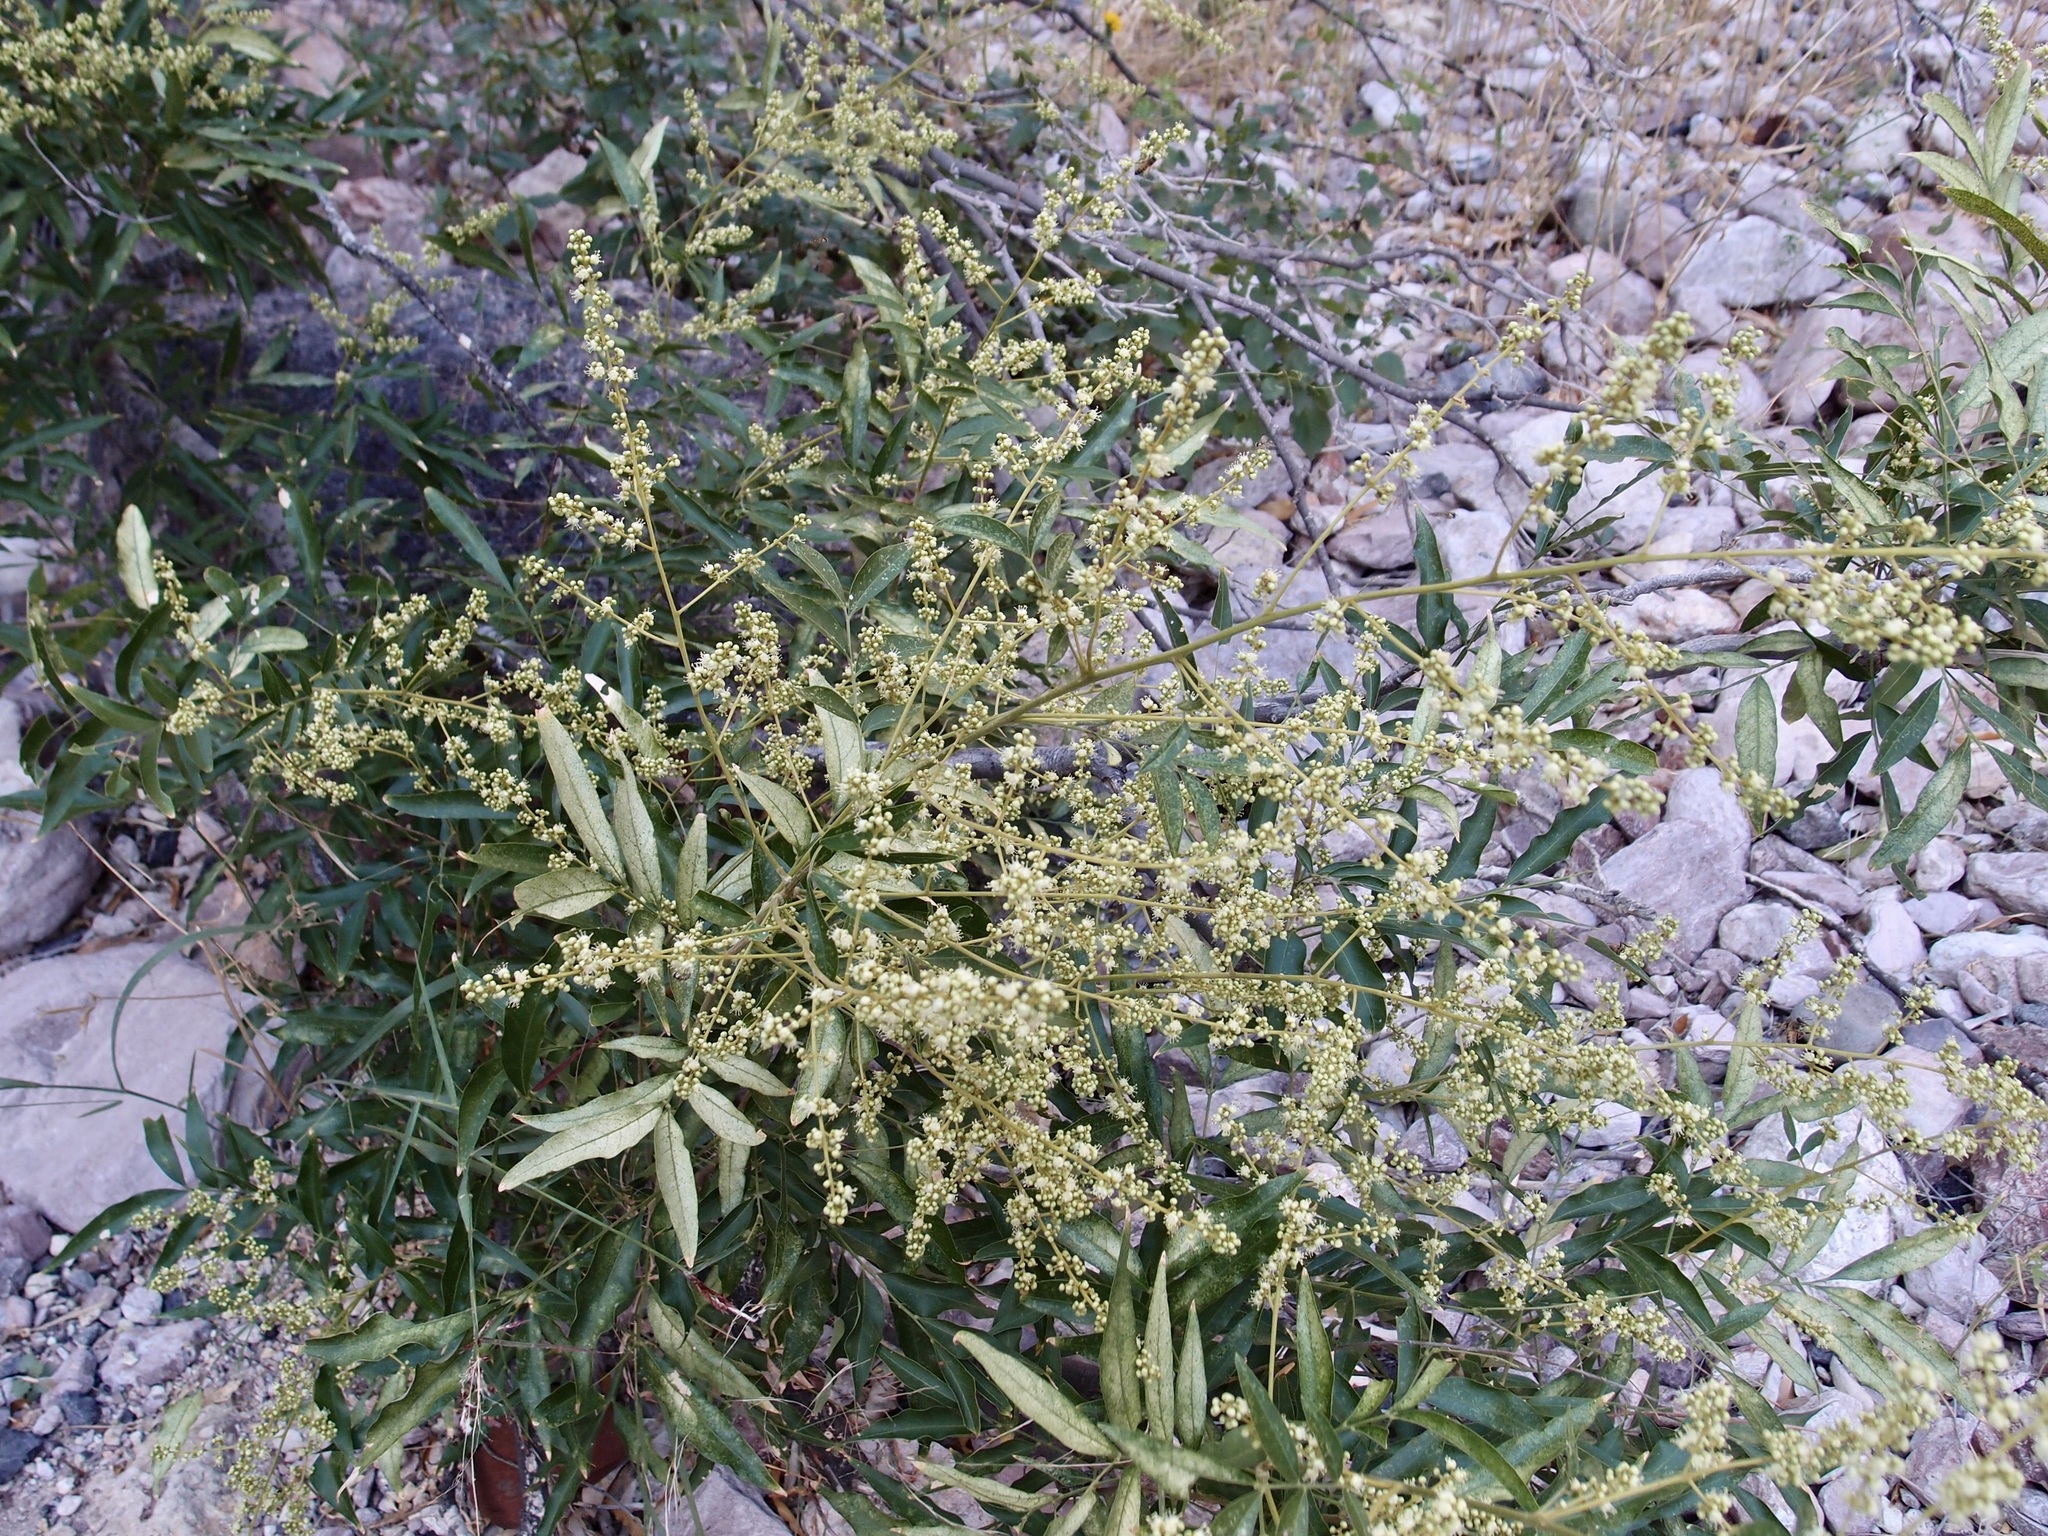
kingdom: Plantae
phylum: Tracheophyta
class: Magnoliopsida
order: Sapindales
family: Sapindaceae
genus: Sapindus
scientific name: Sapindus saponaria
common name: Wingleaf soapberry
